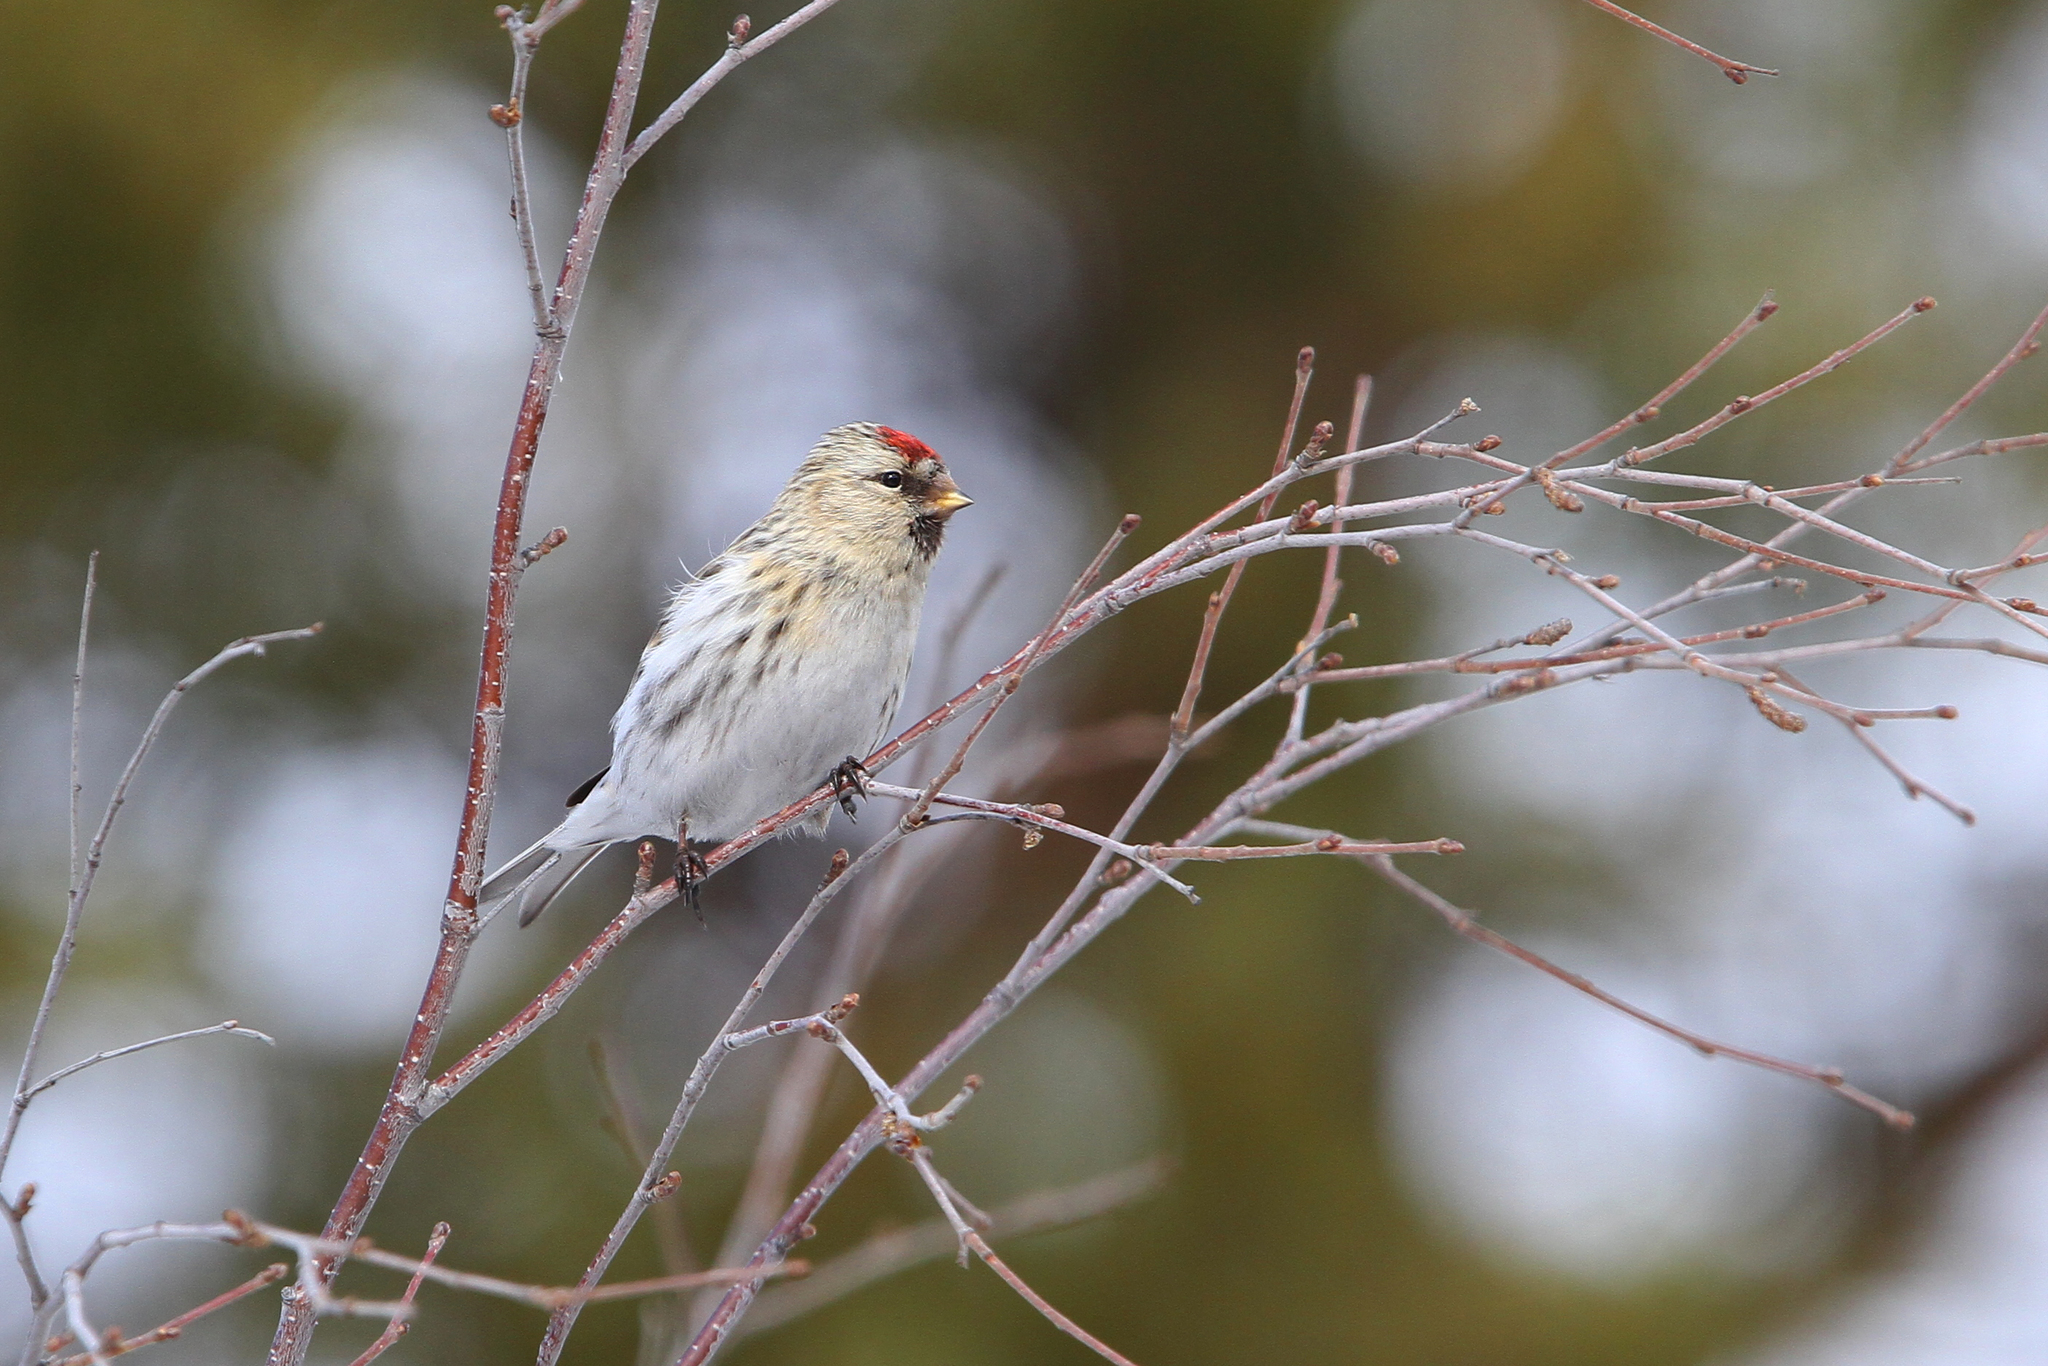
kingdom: Animalia
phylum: Chordata
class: Aves
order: Passeriformes
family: Fringillidae
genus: Acanthis
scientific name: Acanthis hornemanni
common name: Arctic redpoll
